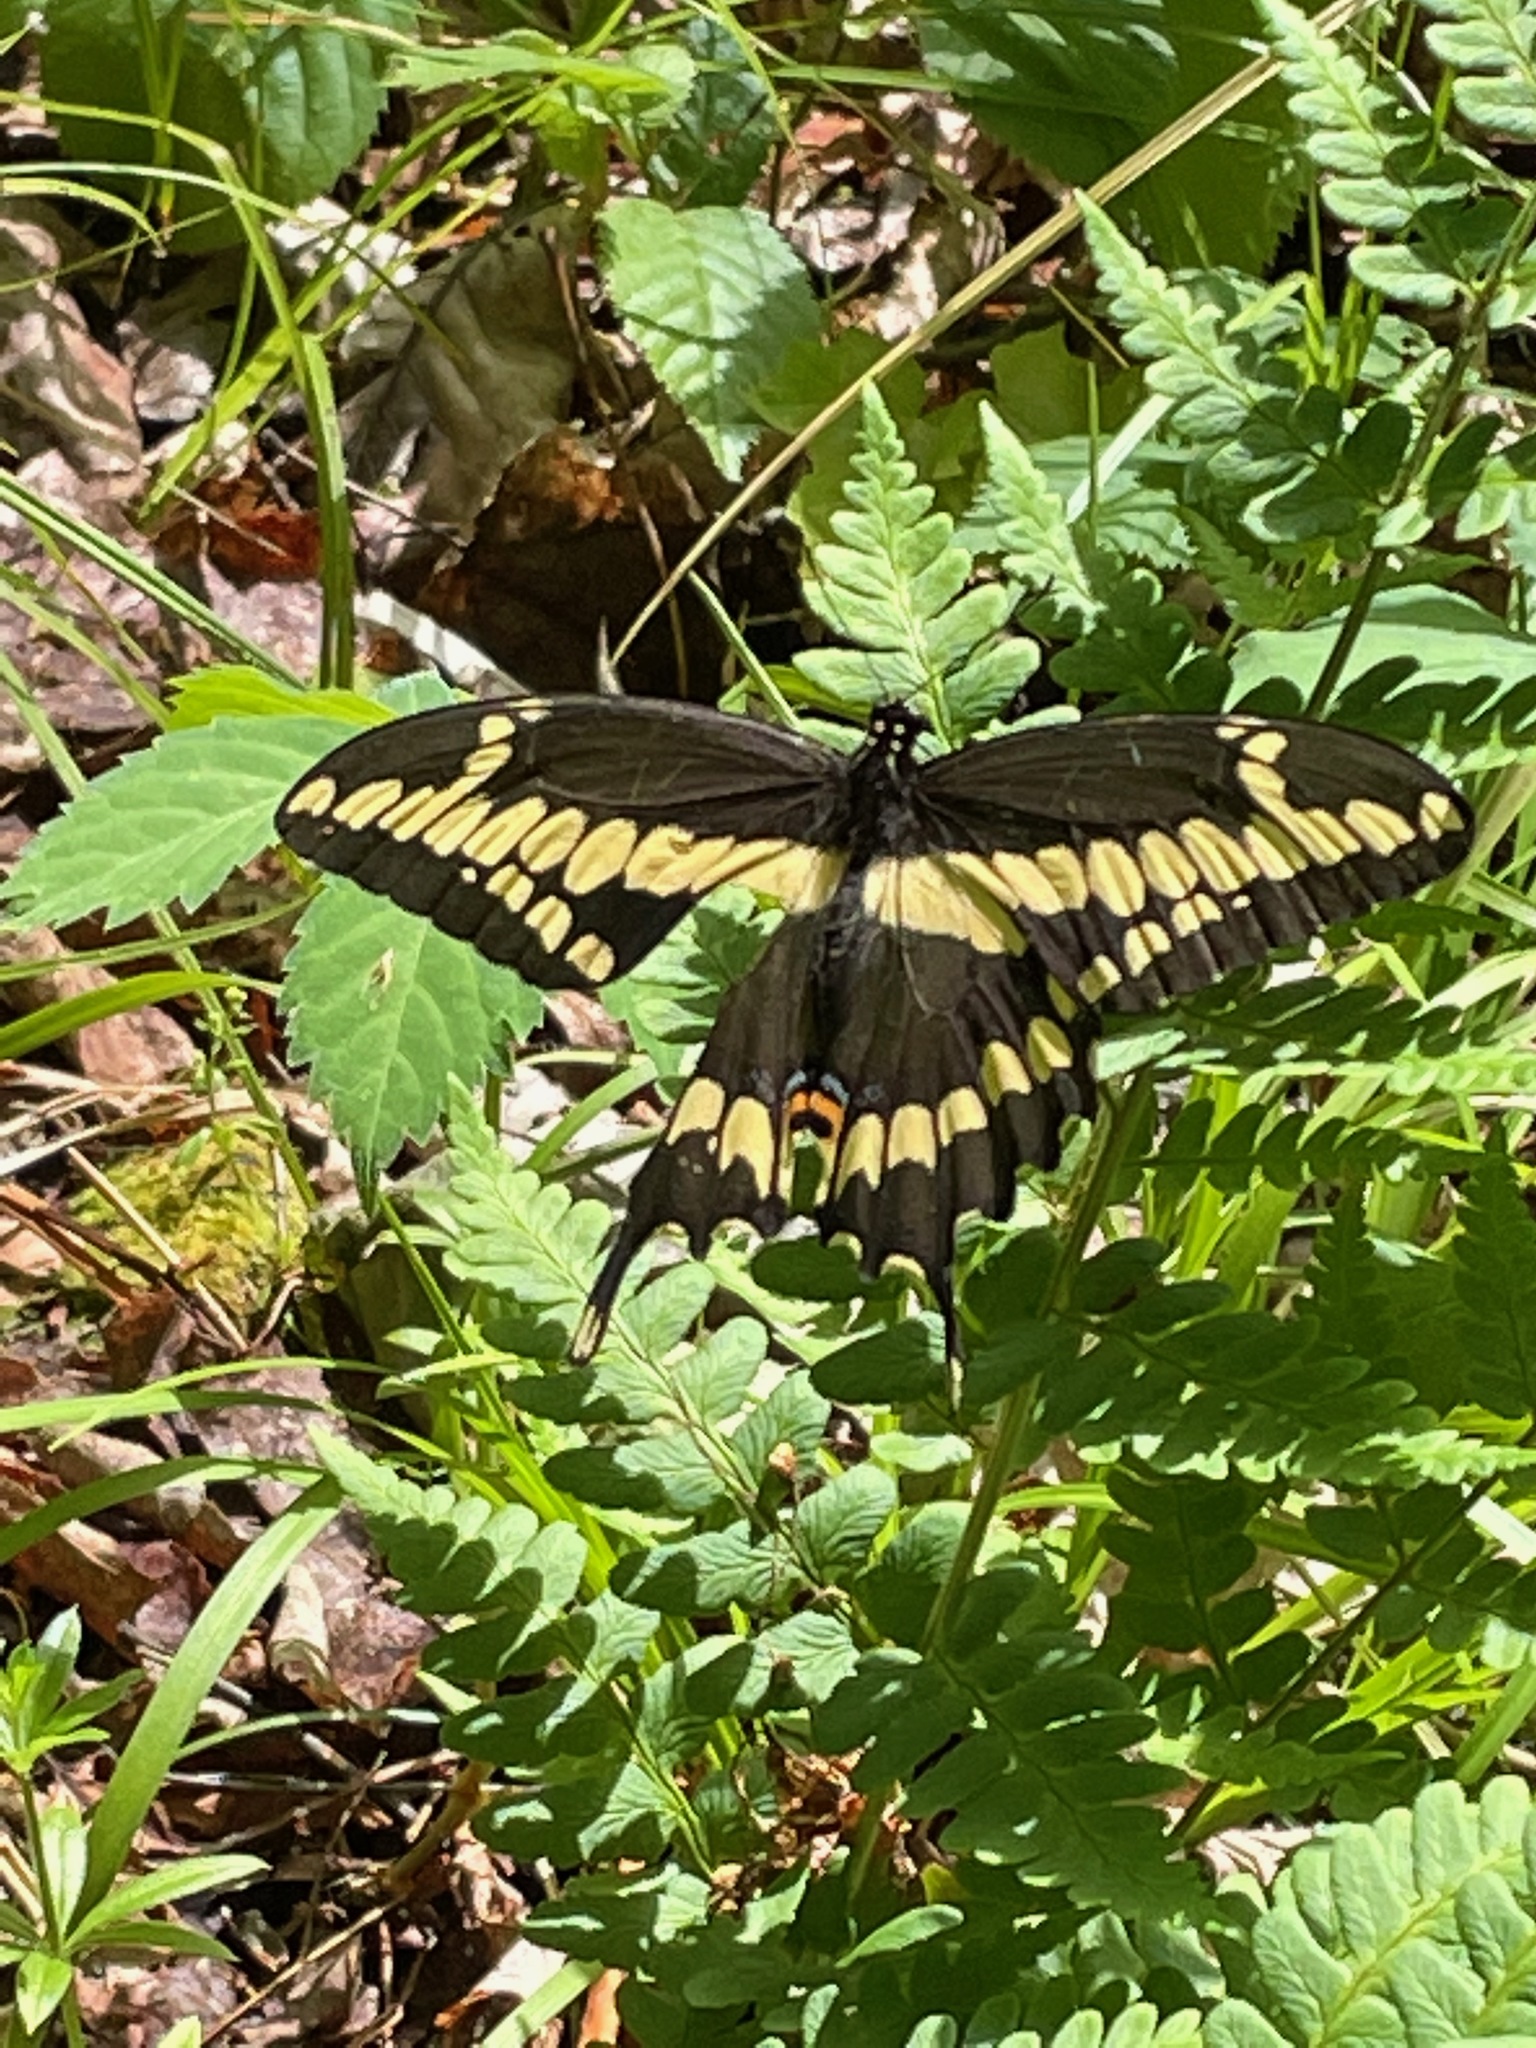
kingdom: Animalia
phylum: Arthropoda
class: Insecta
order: Lepidoptera
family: Papilionidae
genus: Papilio
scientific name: Papilio cresphontes
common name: Giant swallowtail
